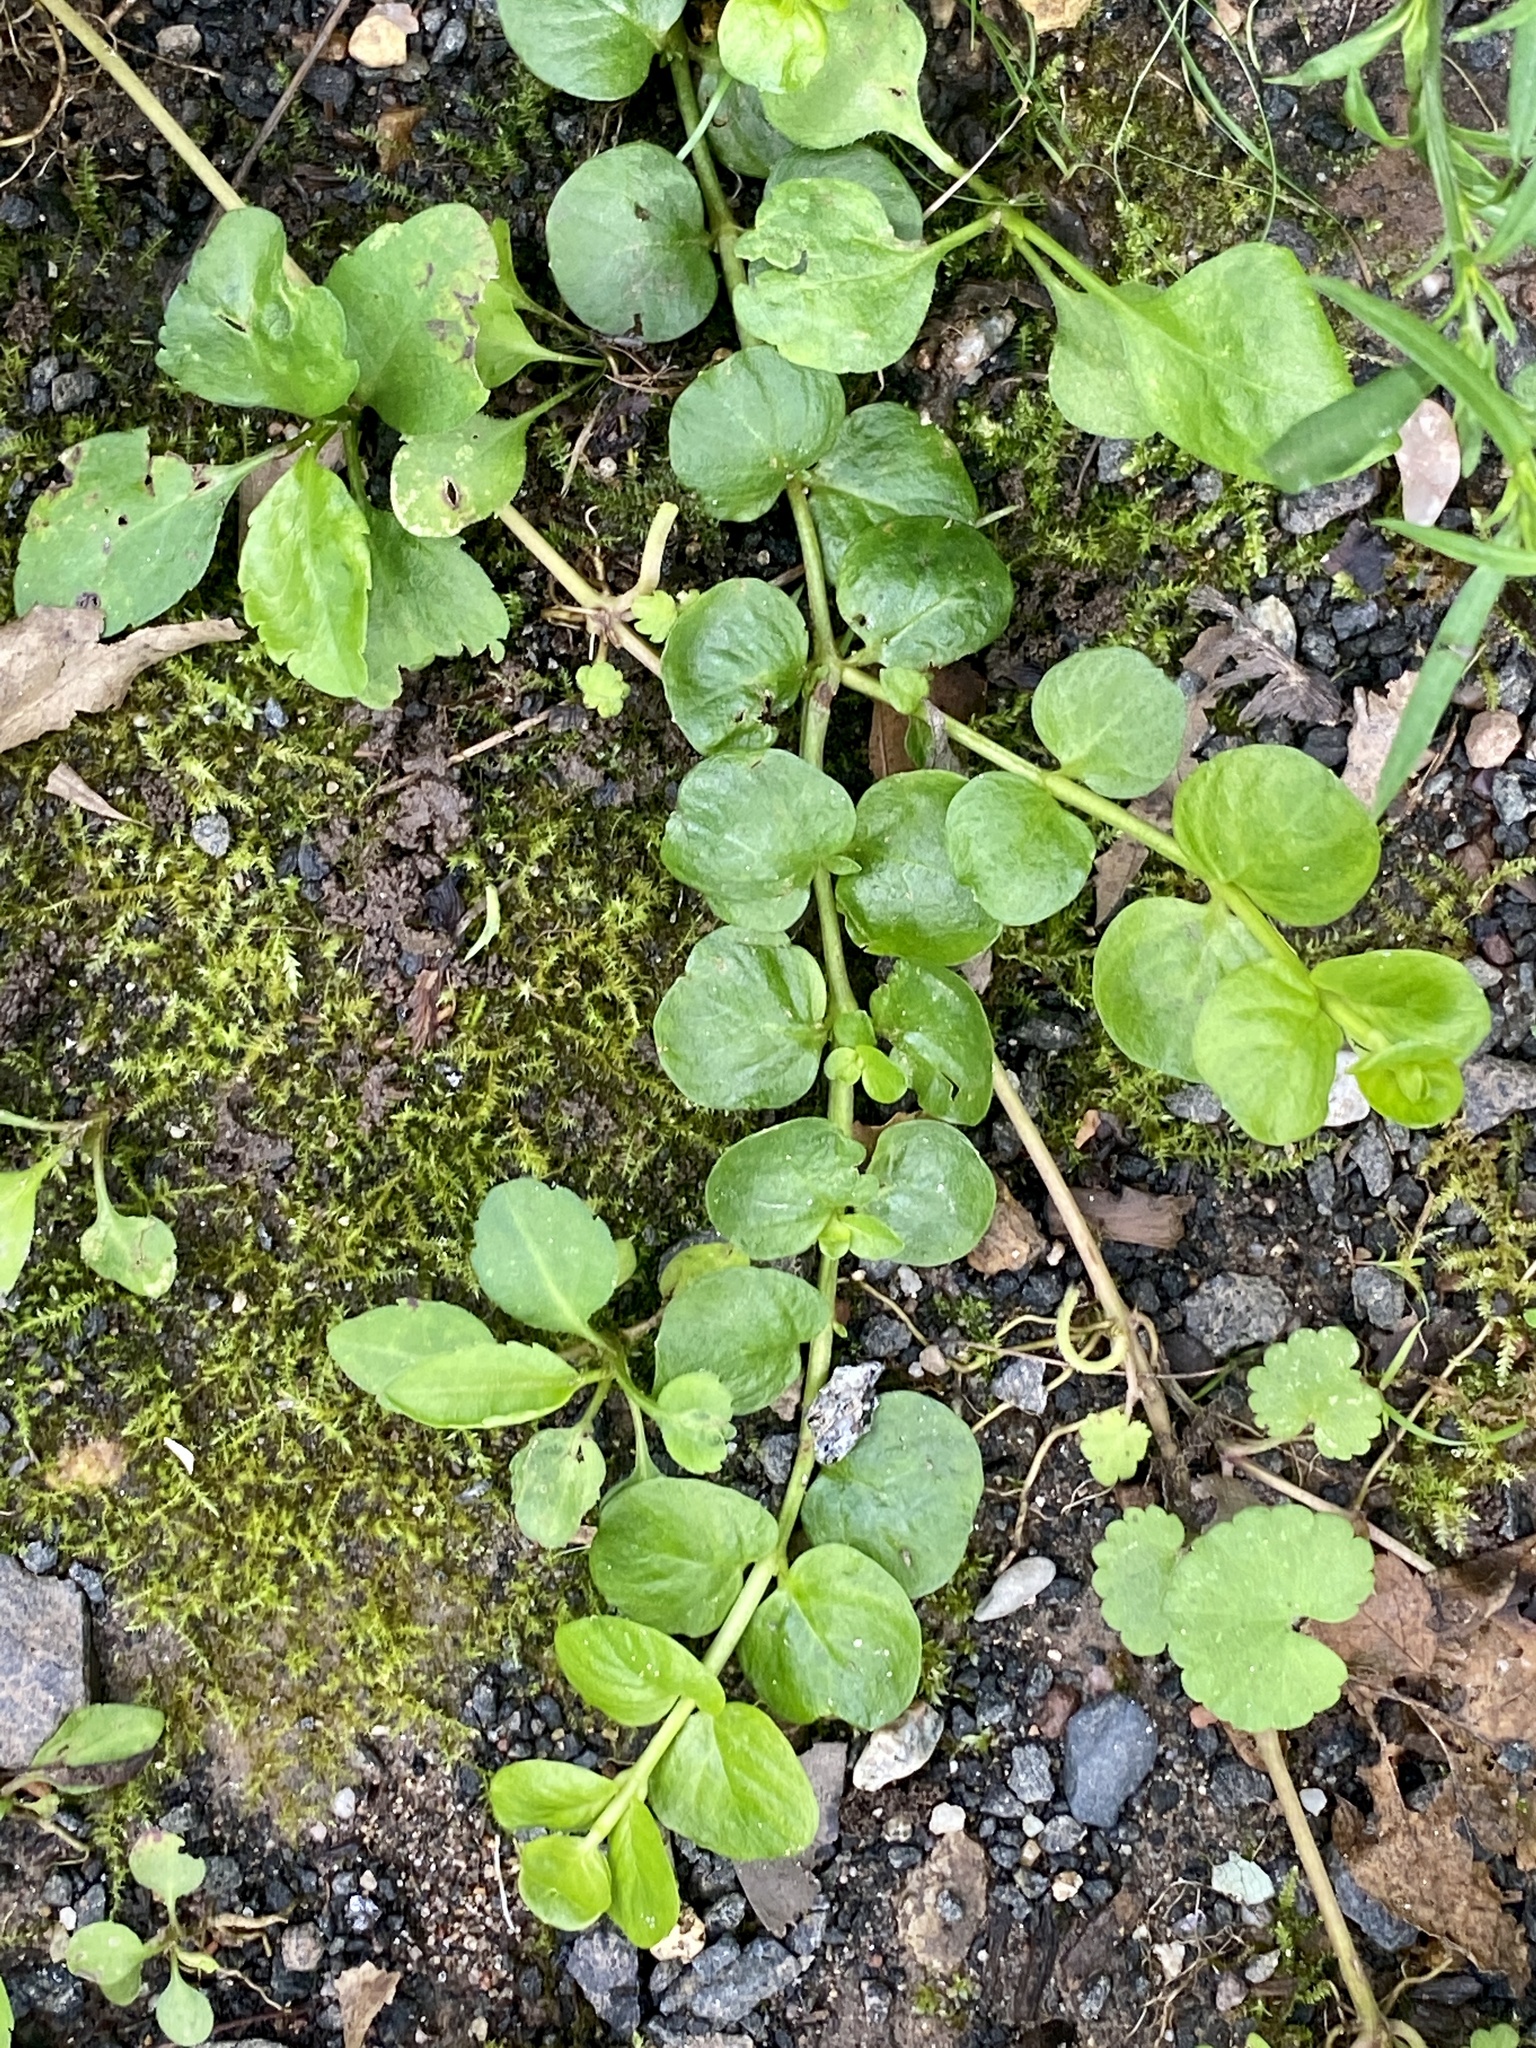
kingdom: Plantae
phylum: Tracheophyta
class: Magnoliopsida
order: Ericales
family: Primulaceae
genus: Lysimachia
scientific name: Lysimachia nummularia
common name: Moneywort
